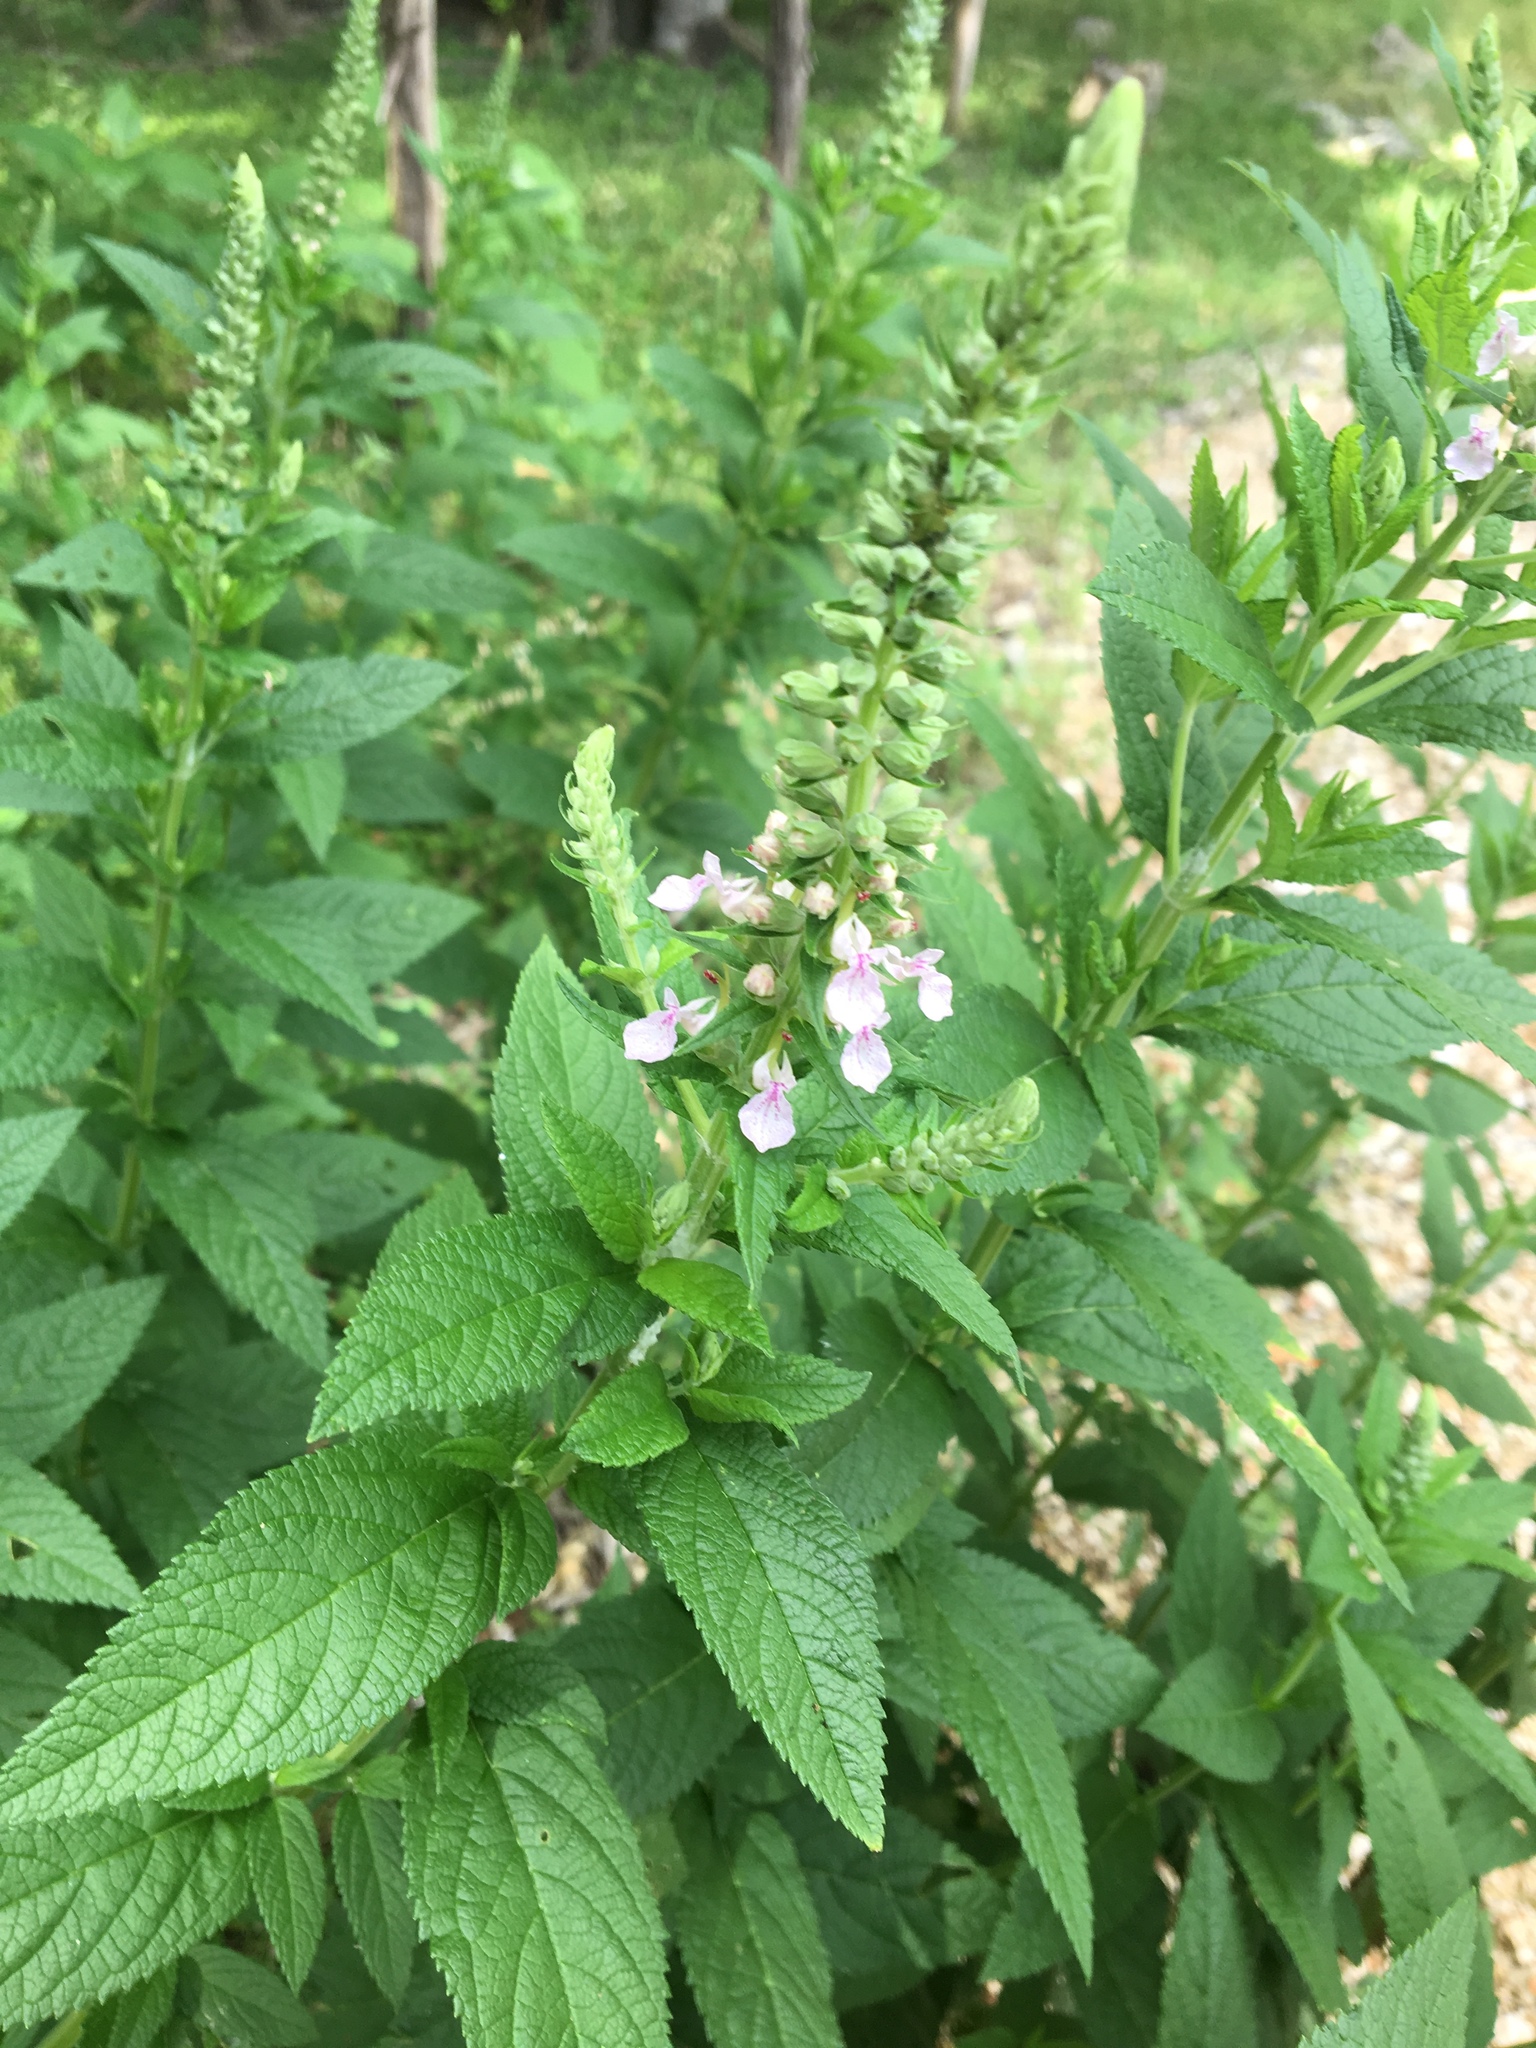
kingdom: Plantae
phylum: Tracheophyta
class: Magnoliopsida
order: Lamiales
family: Lamiaceae
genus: Teucrium
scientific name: Teucrium canadense
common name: American germander
